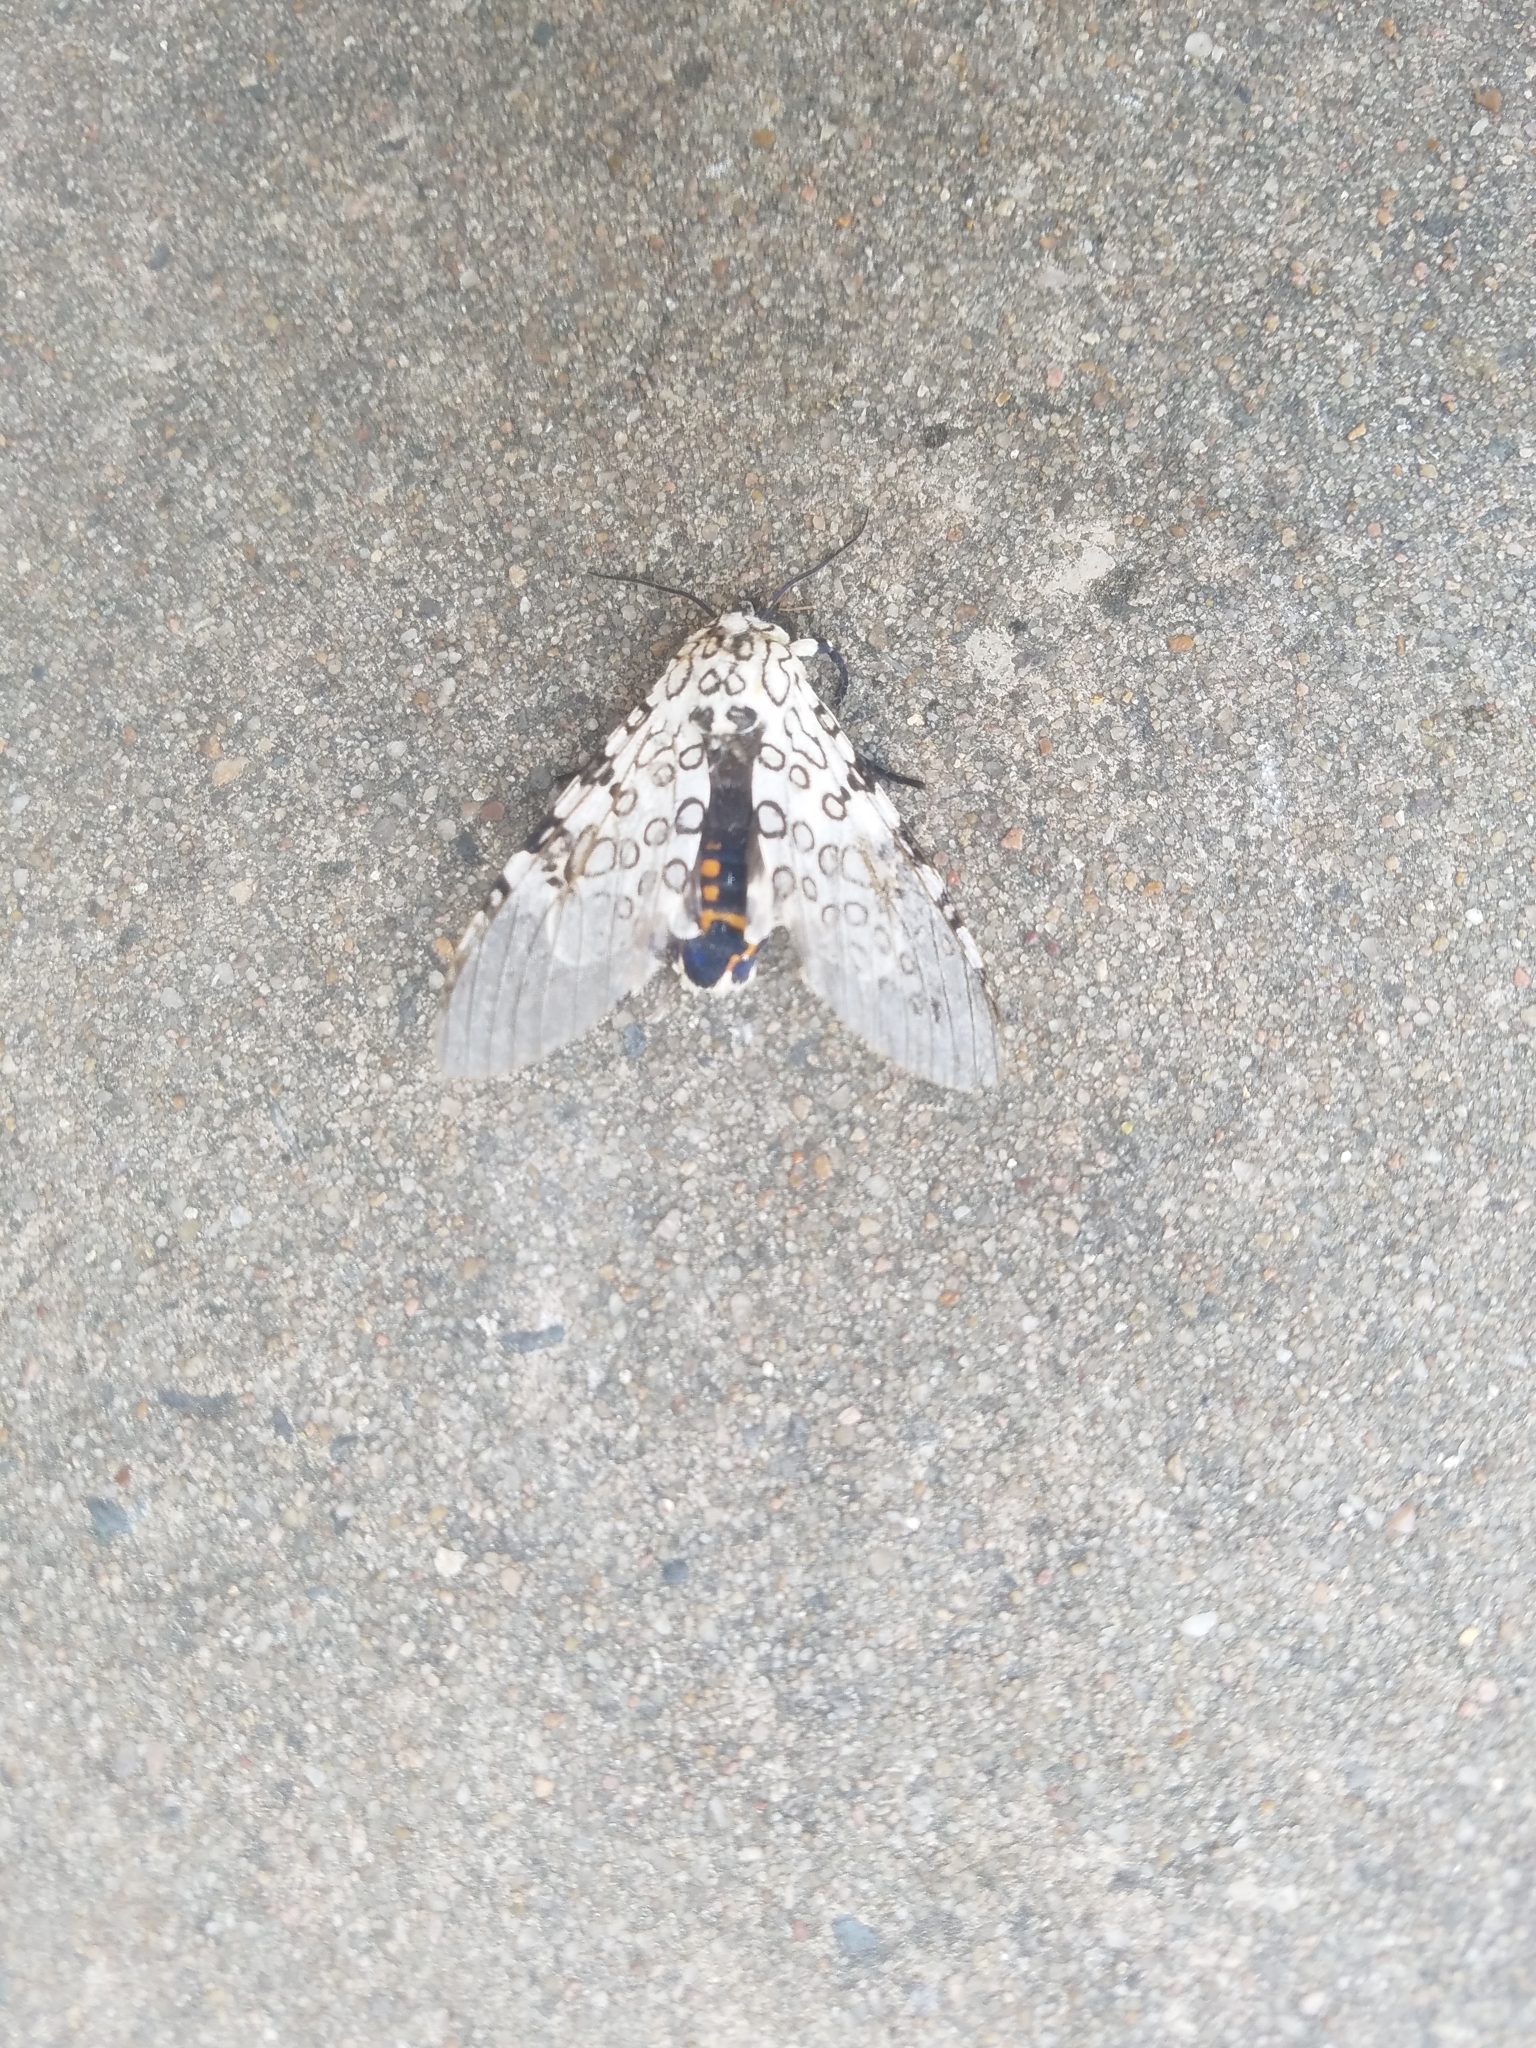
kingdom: Animalia
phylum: Arthropoda
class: Insecta
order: Lepidoptera
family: Erebidae
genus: Hypercompe
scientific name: Hypercompe scribonia
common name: Giant leopard moth
